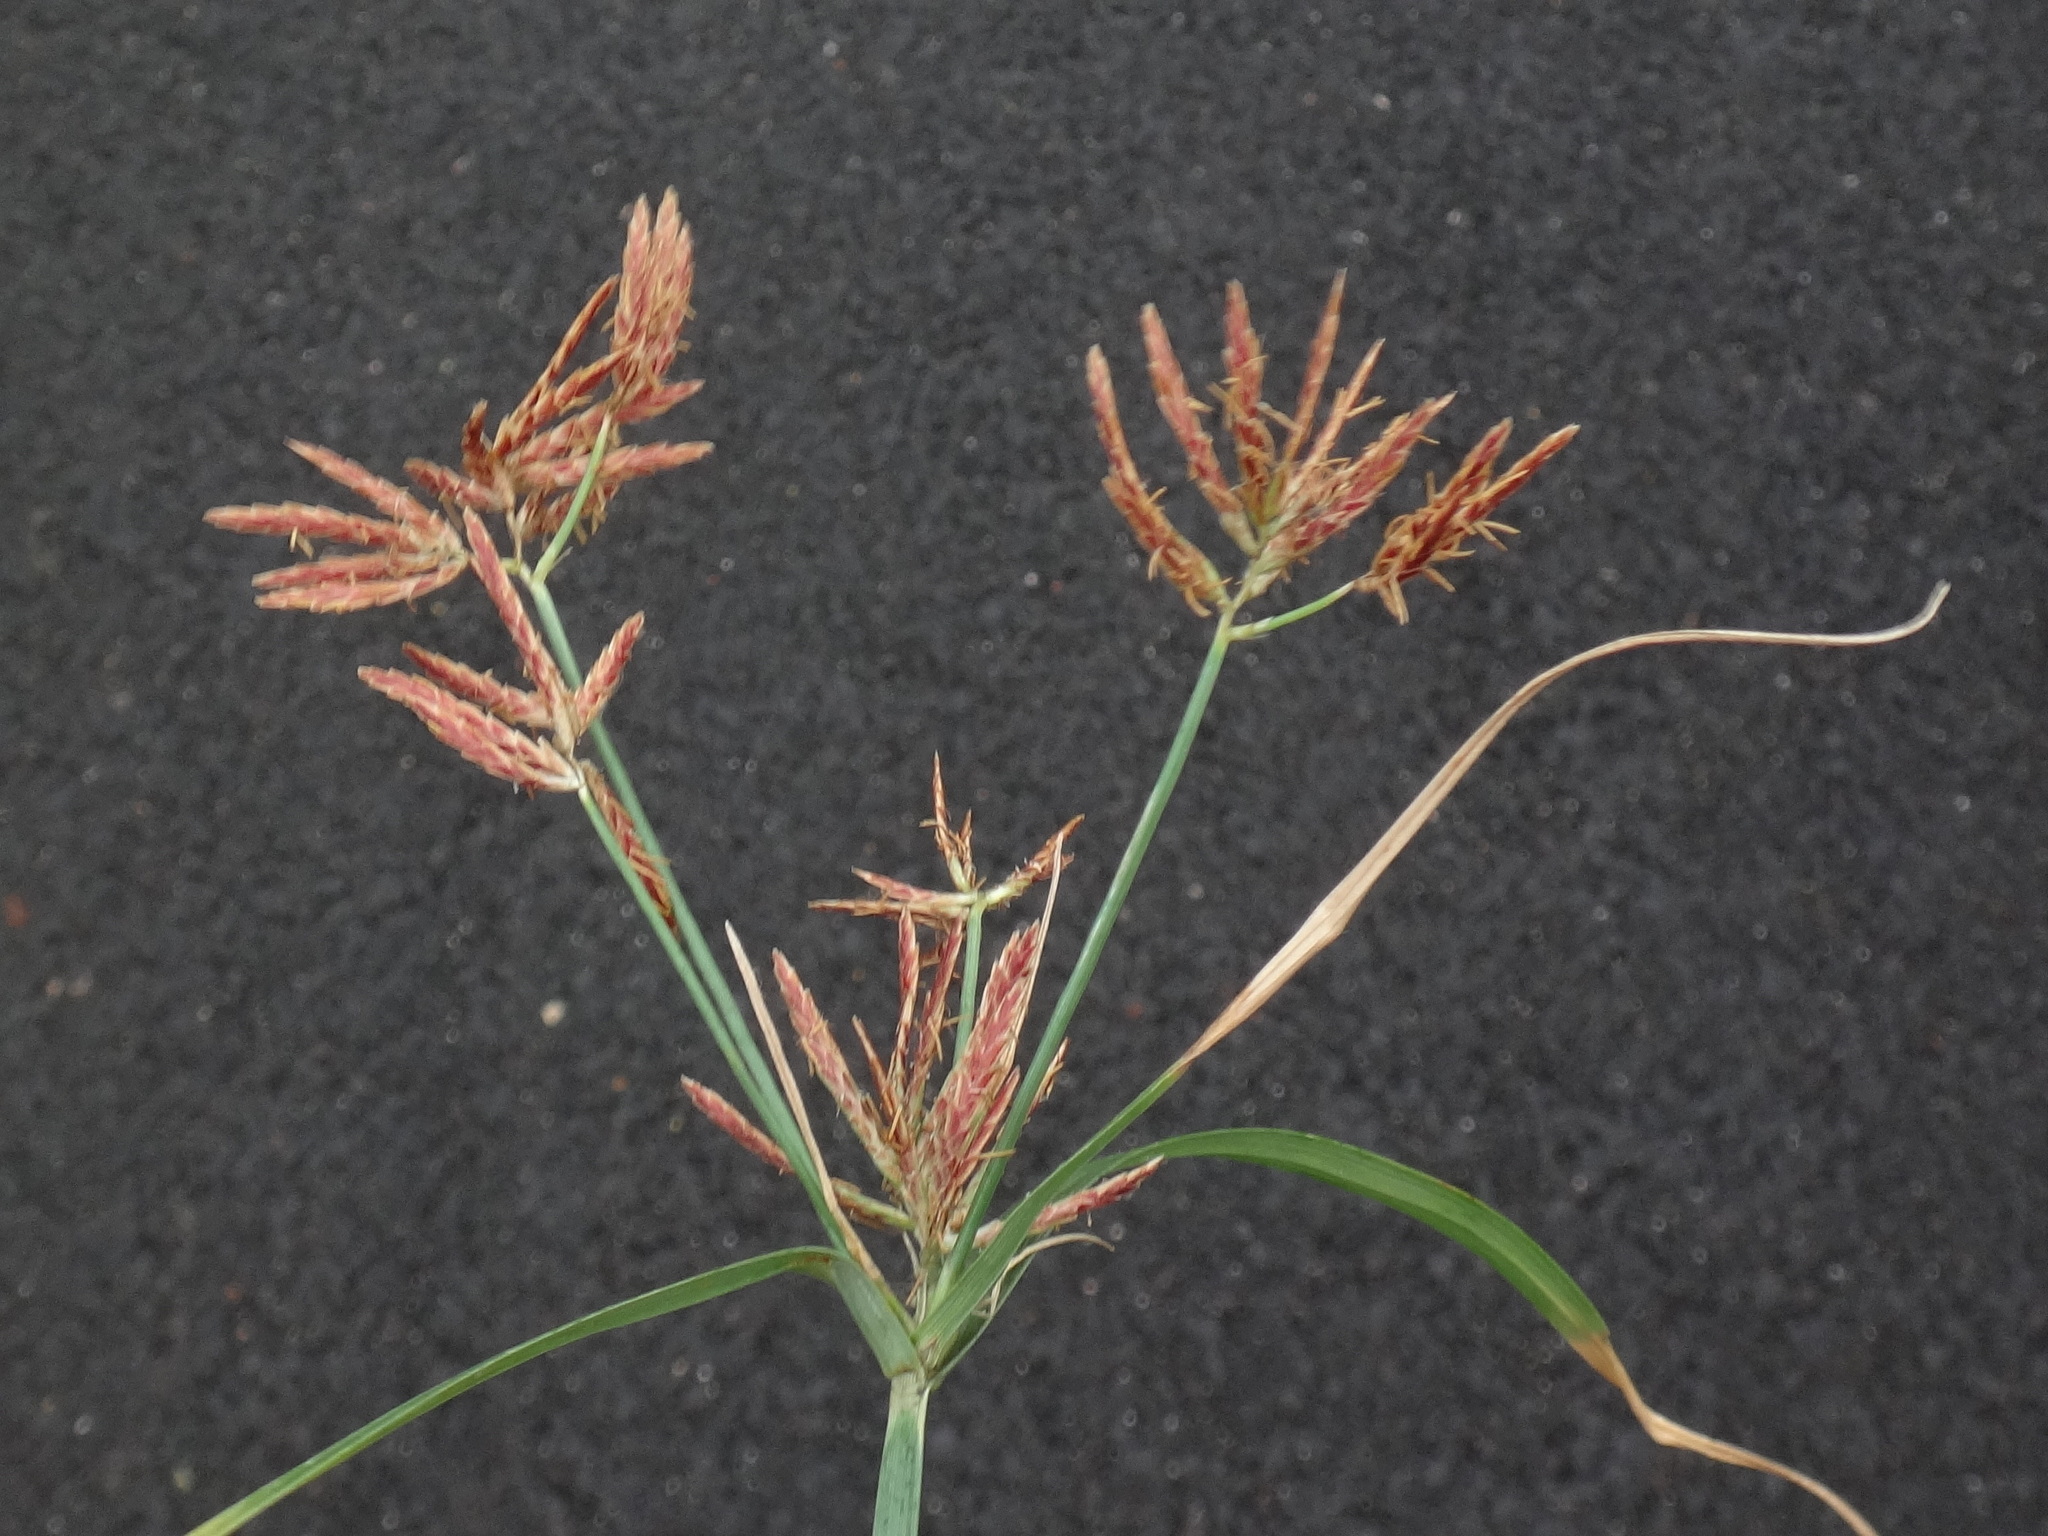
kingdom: Plantae
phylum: Tracheophyta
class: Liliopsida
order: Poales
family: Cyperaceae
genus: Cyperus
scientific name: Cyperus rotundus
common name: Nutgrass
